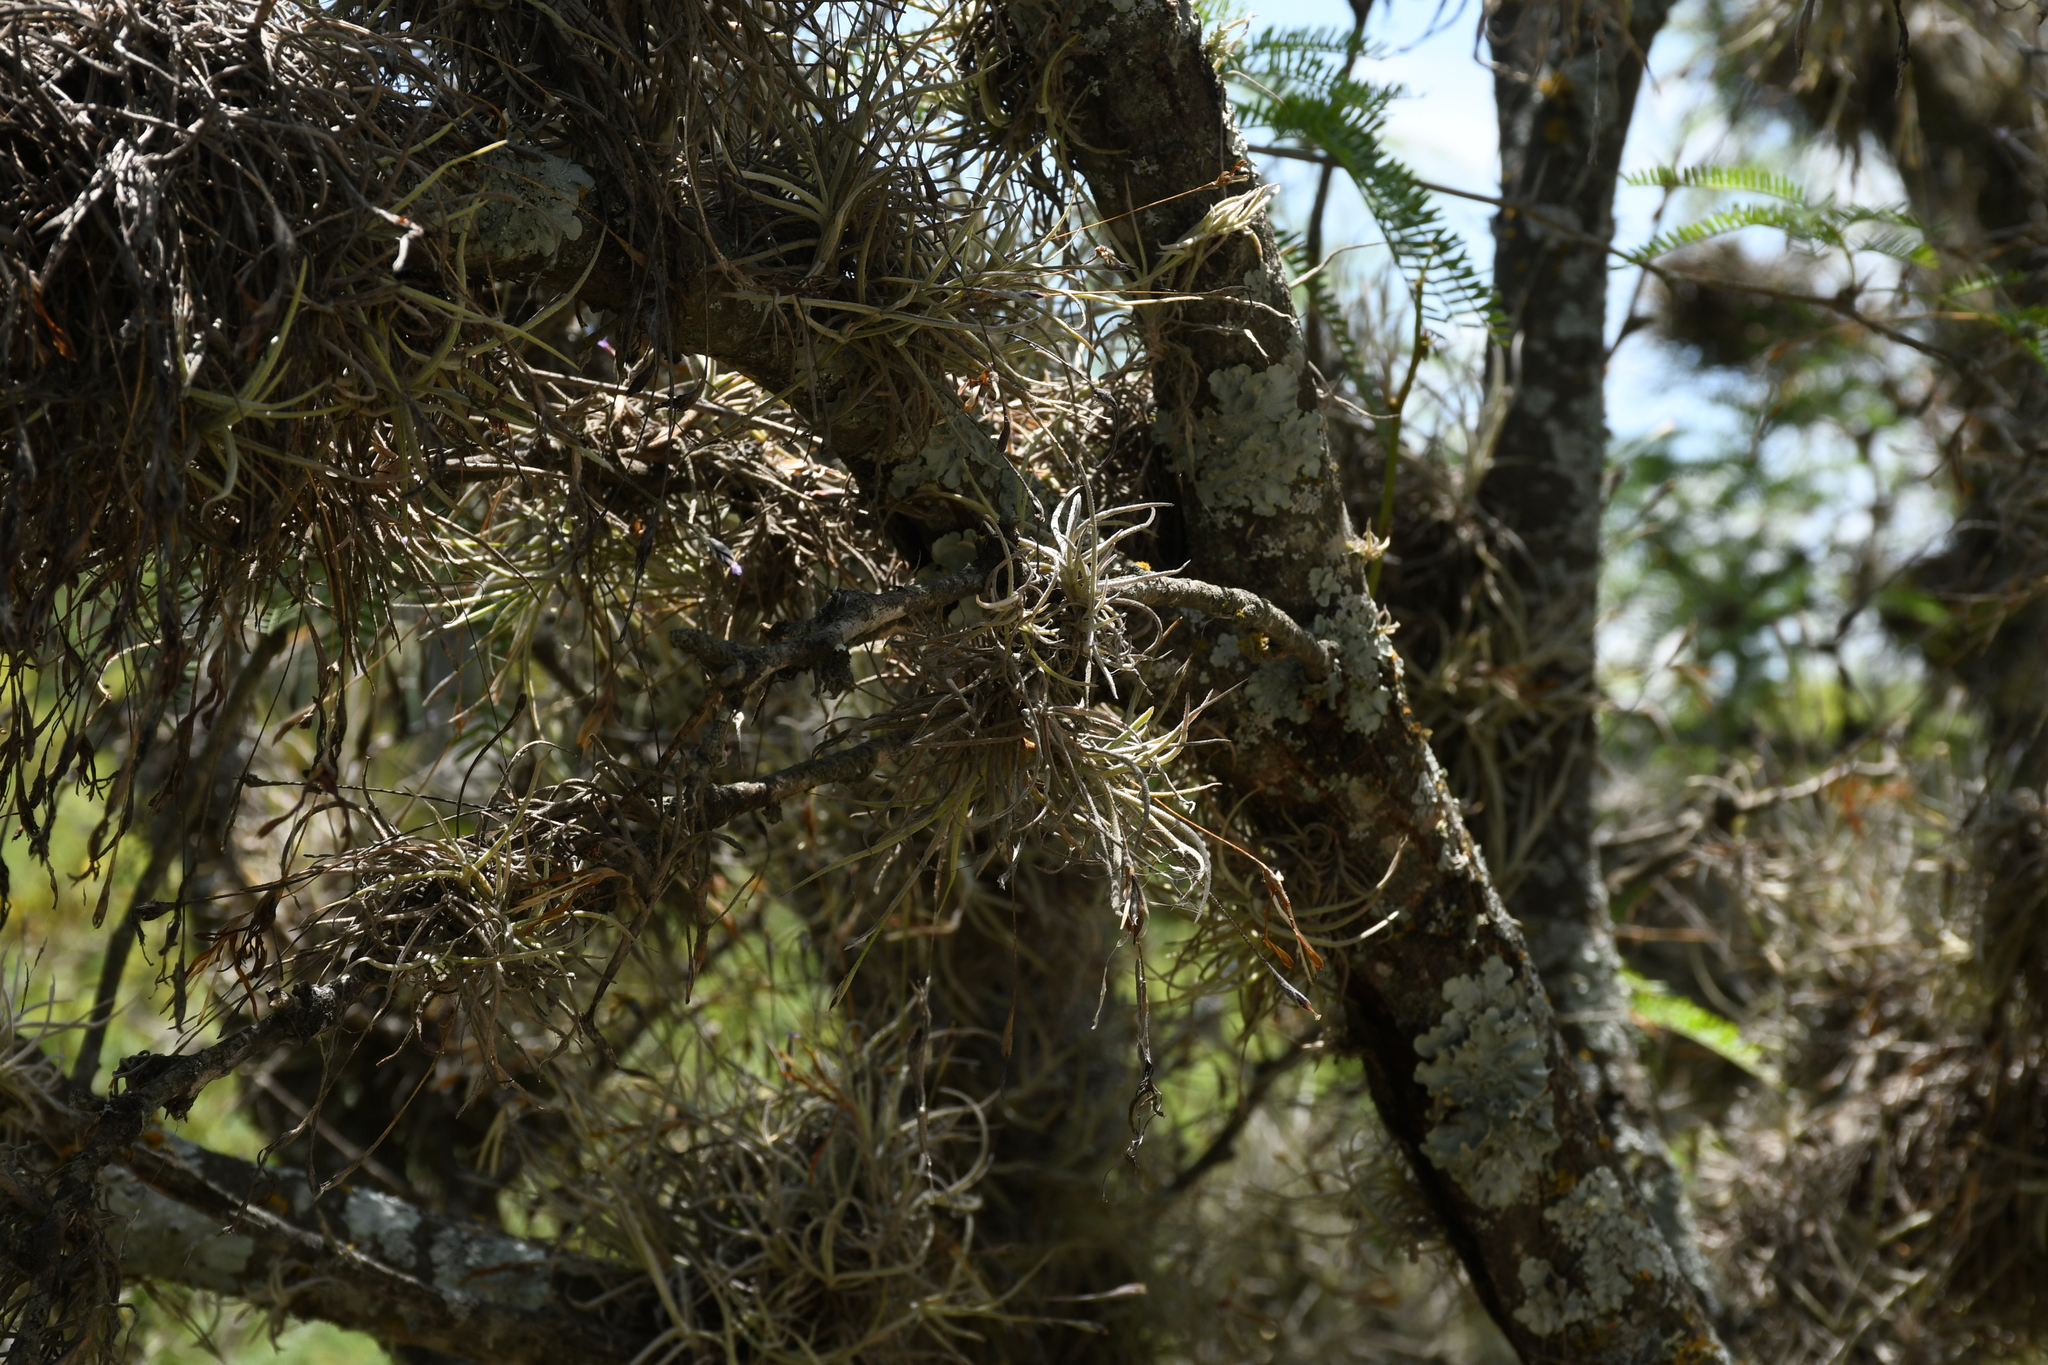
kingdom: Plantae
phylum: Tracheophyta
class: Liliopsida
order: Poales
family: Bromeliaceae
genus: Tillandsia
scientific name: Tillandsia recurvata
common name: Small ballmoss
